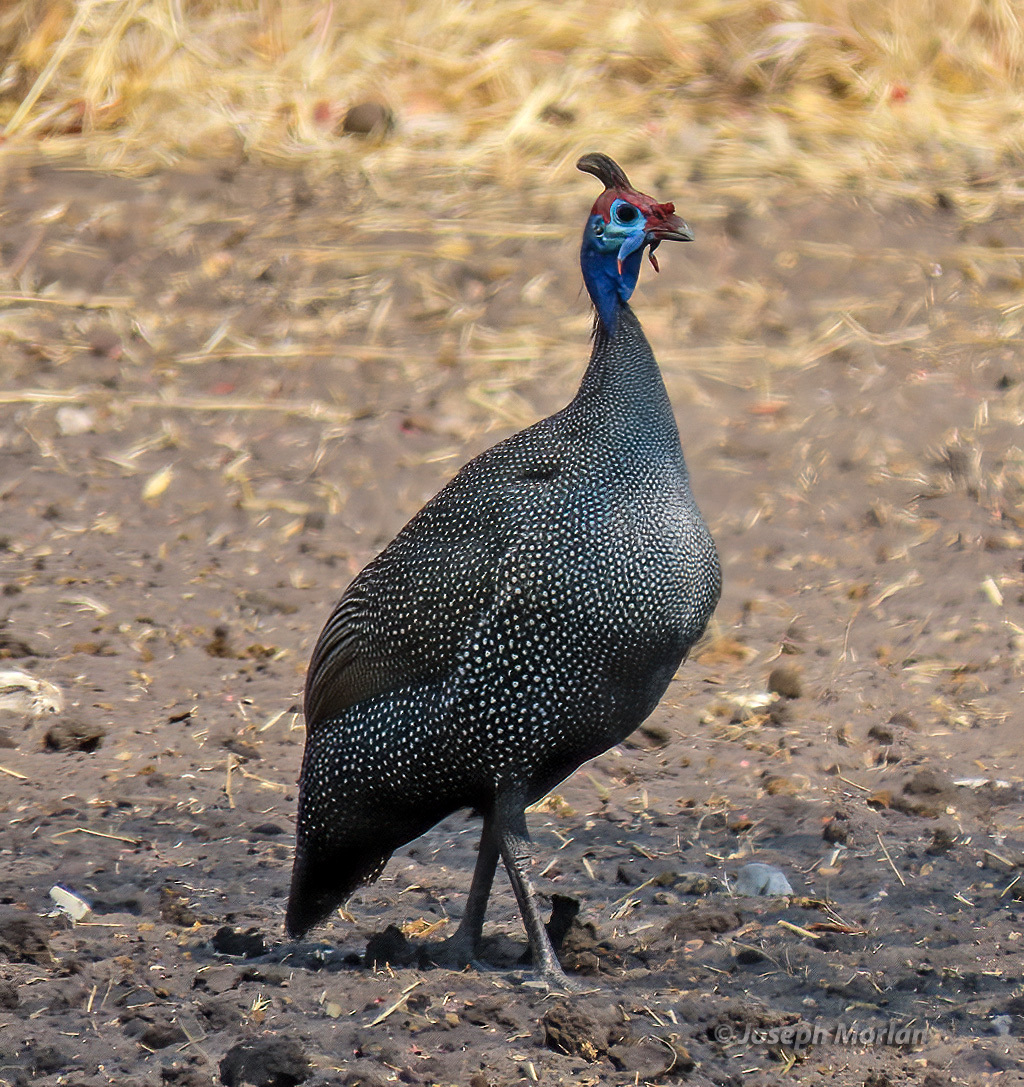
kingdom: Animalia
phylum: Chordata
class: Aves
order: Galliformes
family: Numididae
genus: Numida
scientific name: Numida meleagris
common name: Helmeted guineafowl
